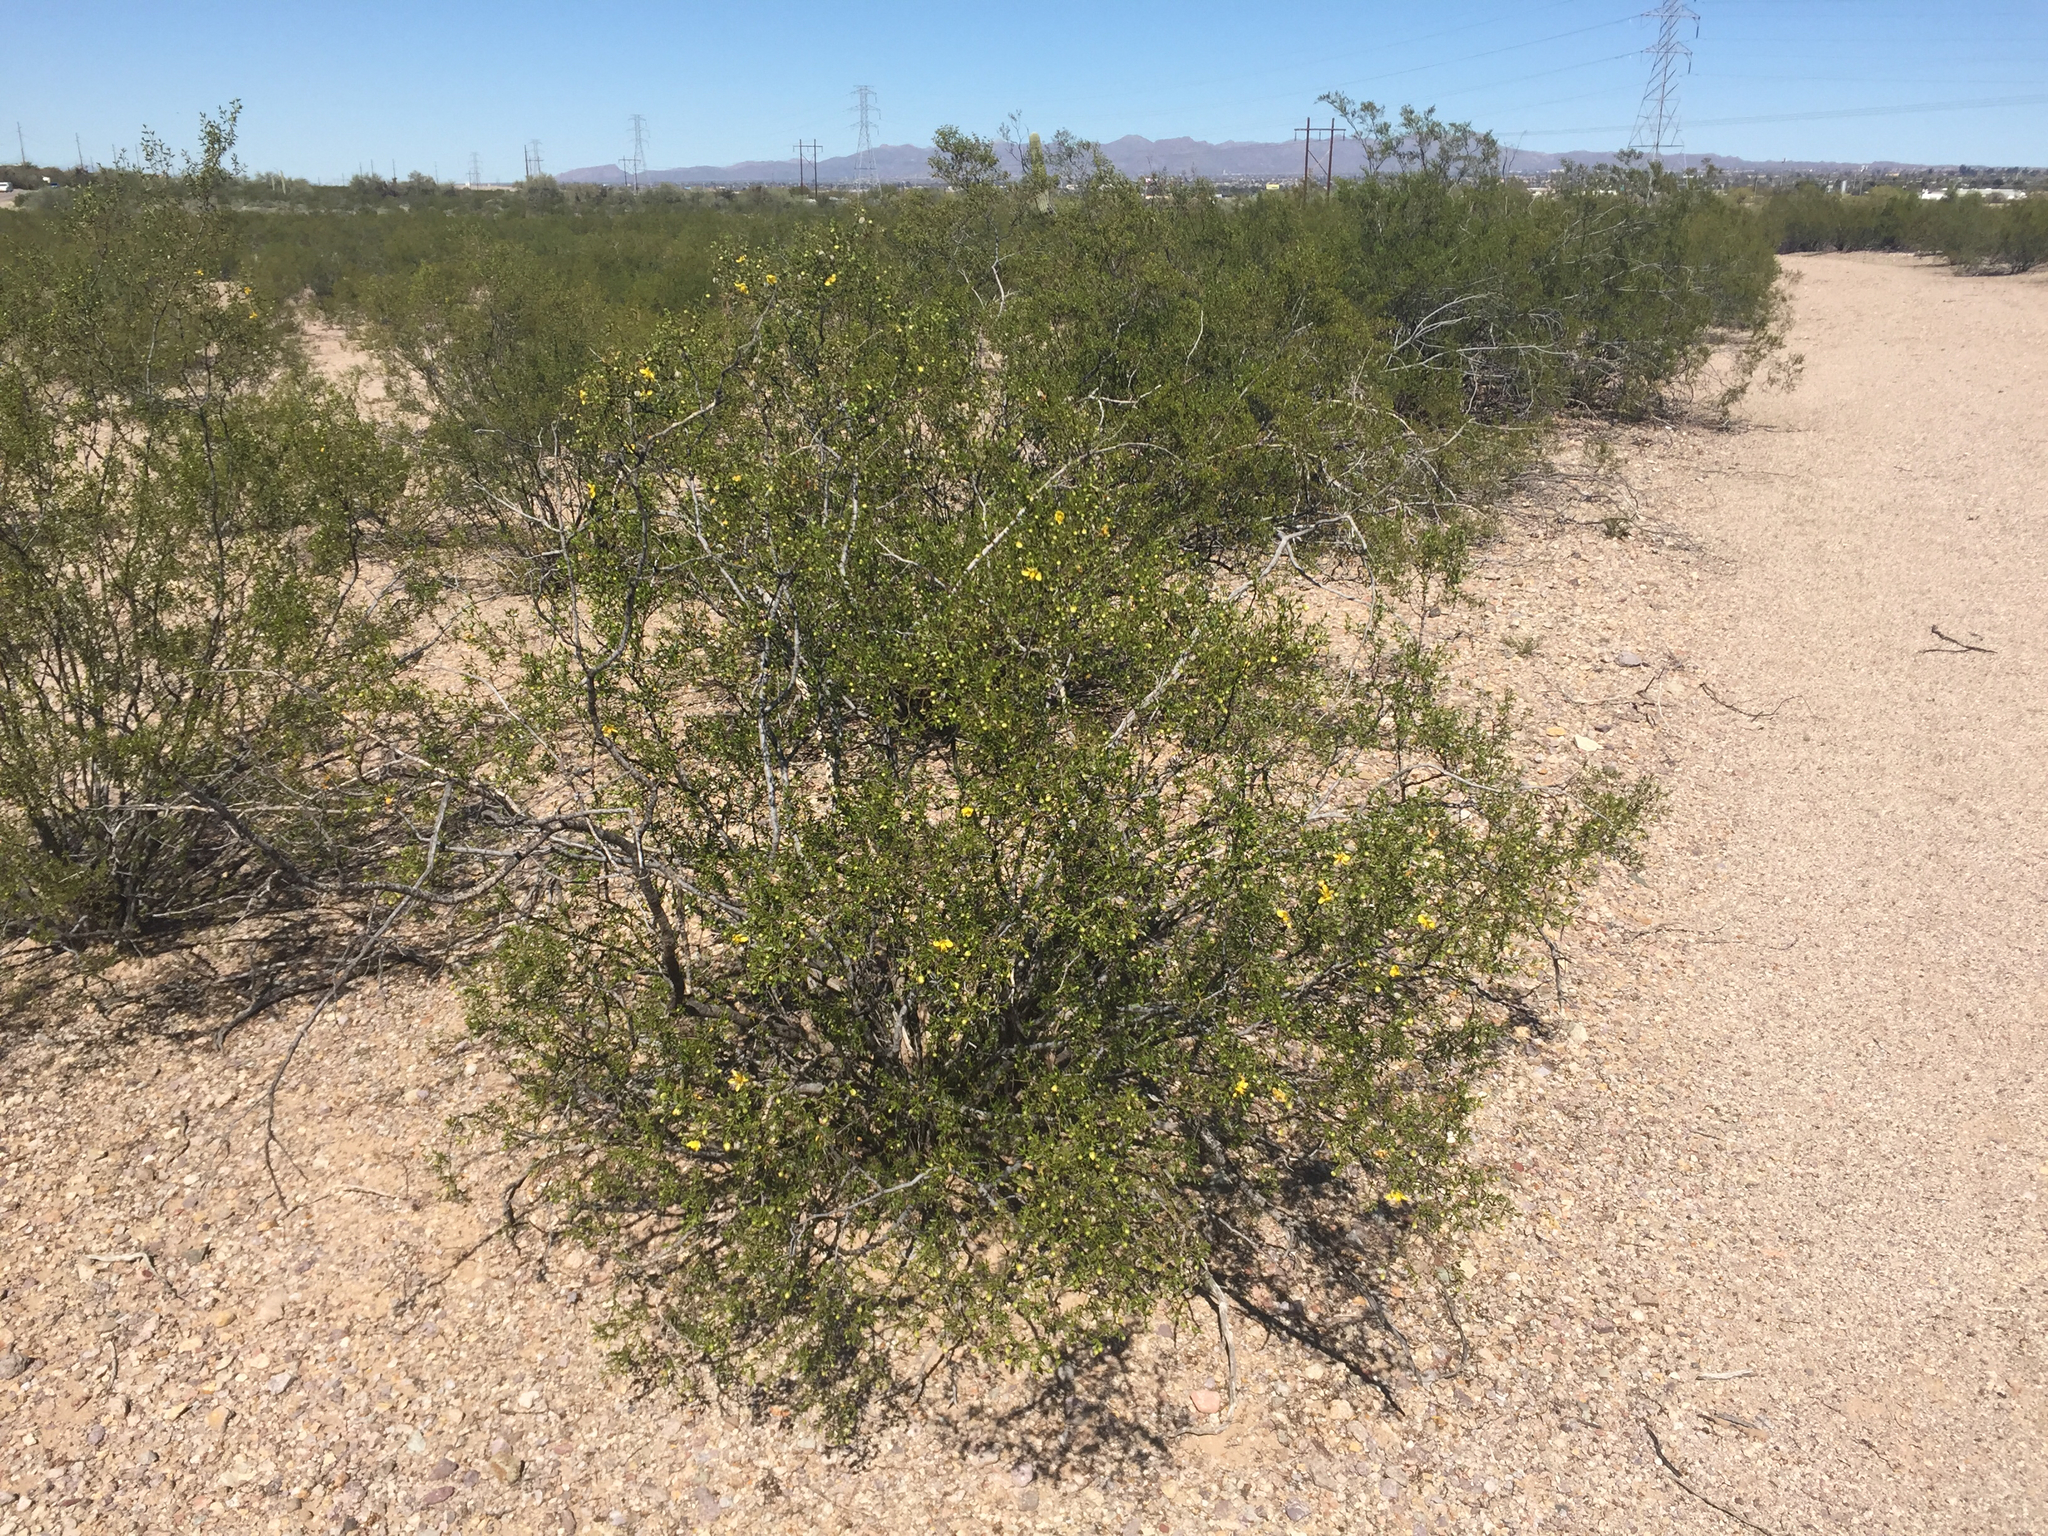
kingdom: Plantae
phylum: Tracheophyta
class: Magnoliopsida
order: Zygophyllales
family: Zygophyllaceae
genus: Larrea
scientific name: Larrea tridentata
